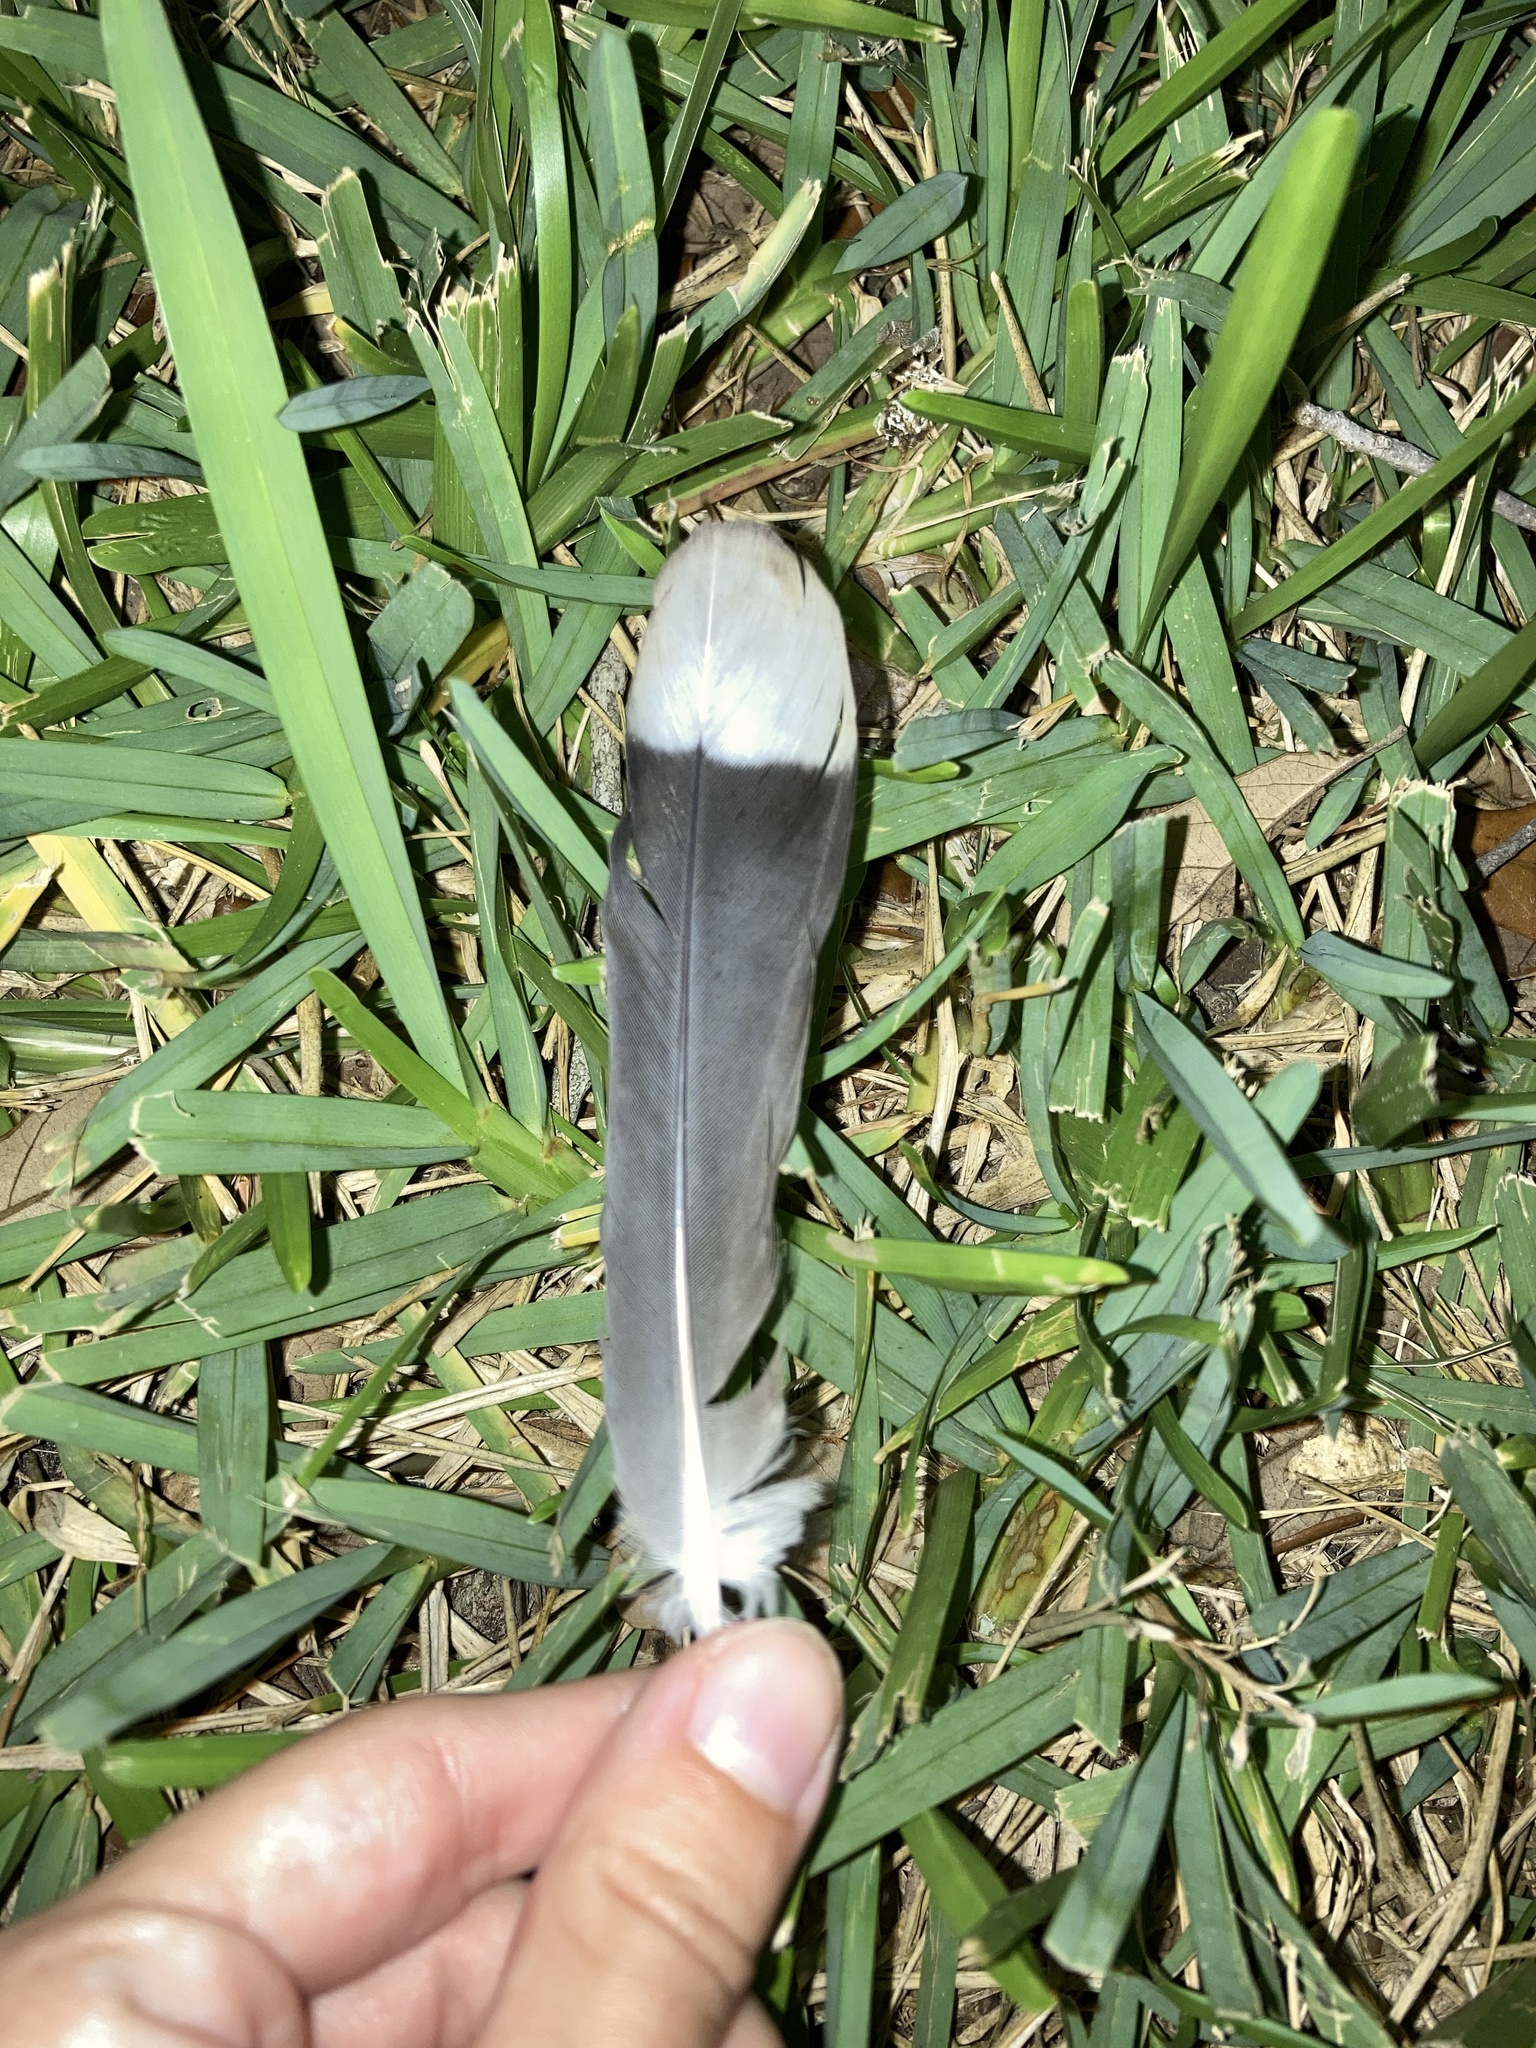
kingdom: Animalia
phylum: Chordata
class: Aves
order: Columbiformes
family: Columbidae
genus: Zenaida
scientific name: Zenaida asiatica
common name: White-winged dove
